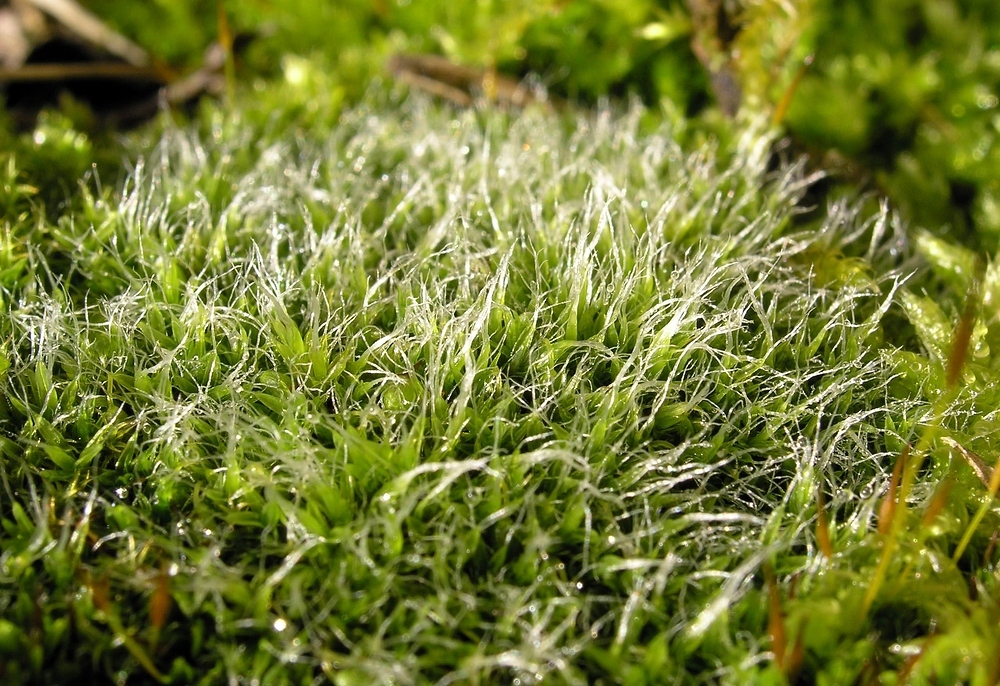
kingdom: Plantae
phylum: Bryophyta
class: Bryopsida
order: Pottiales
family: Pottiaceae
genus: Tortula
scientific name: Tortula muralis
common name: Wall screw-moss
